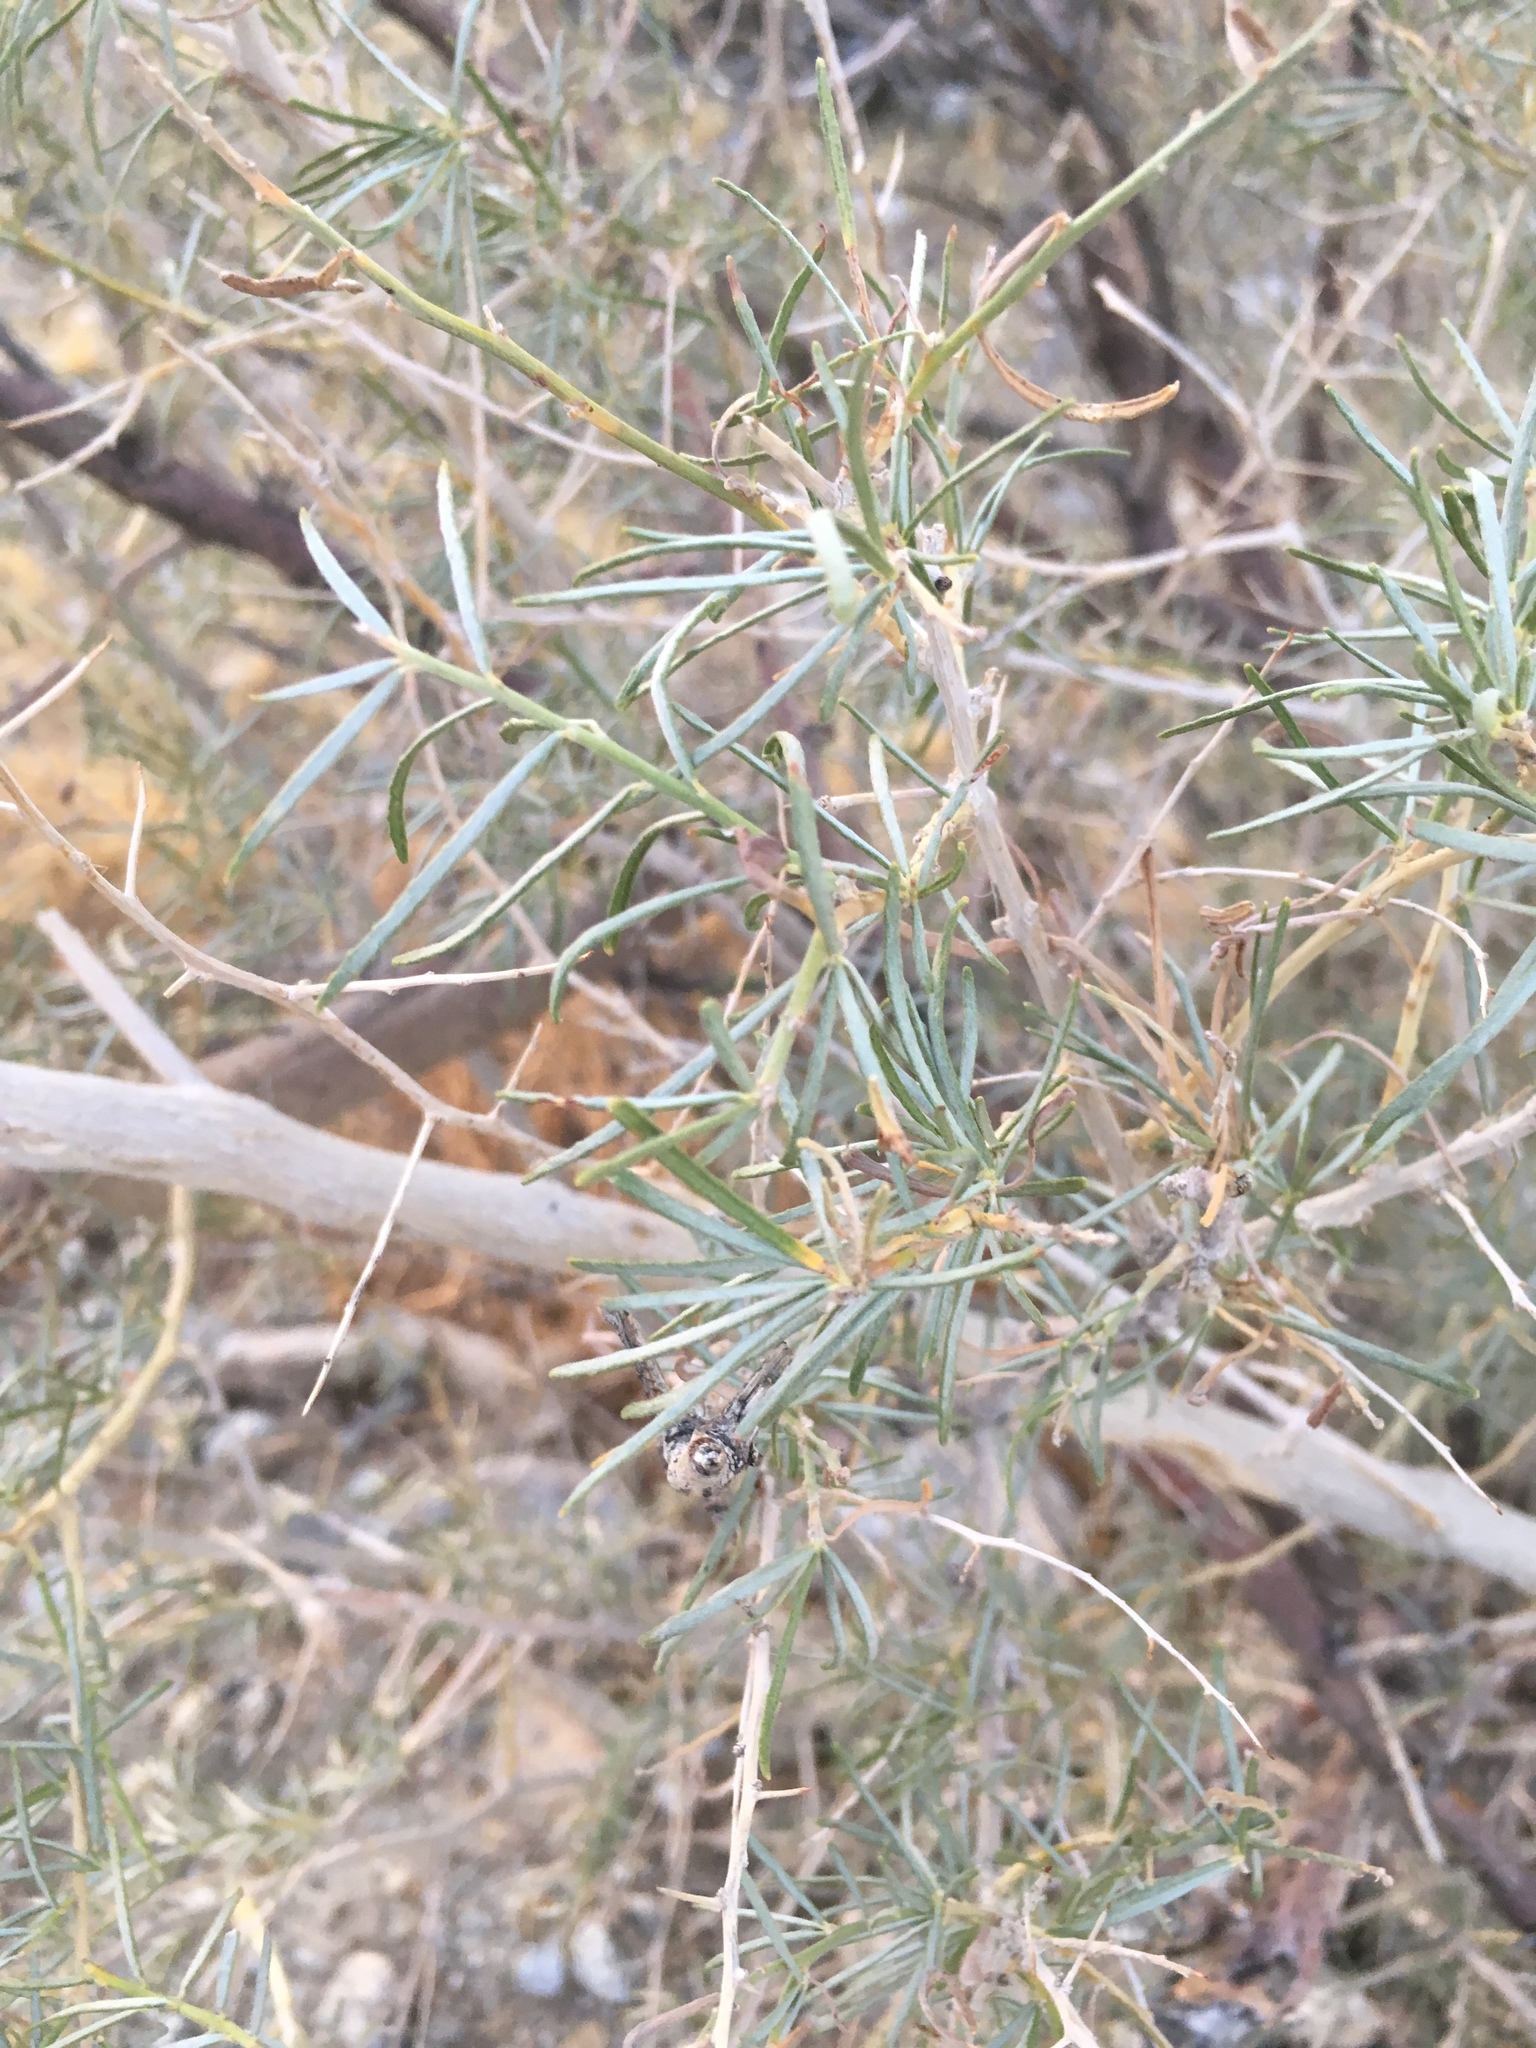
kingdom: Plantae
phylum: Tracheophyta
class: Magnoliopsida
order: Fabales
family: Fabaceae
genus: Psorothamnus
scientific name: Psorothamnus schottii
